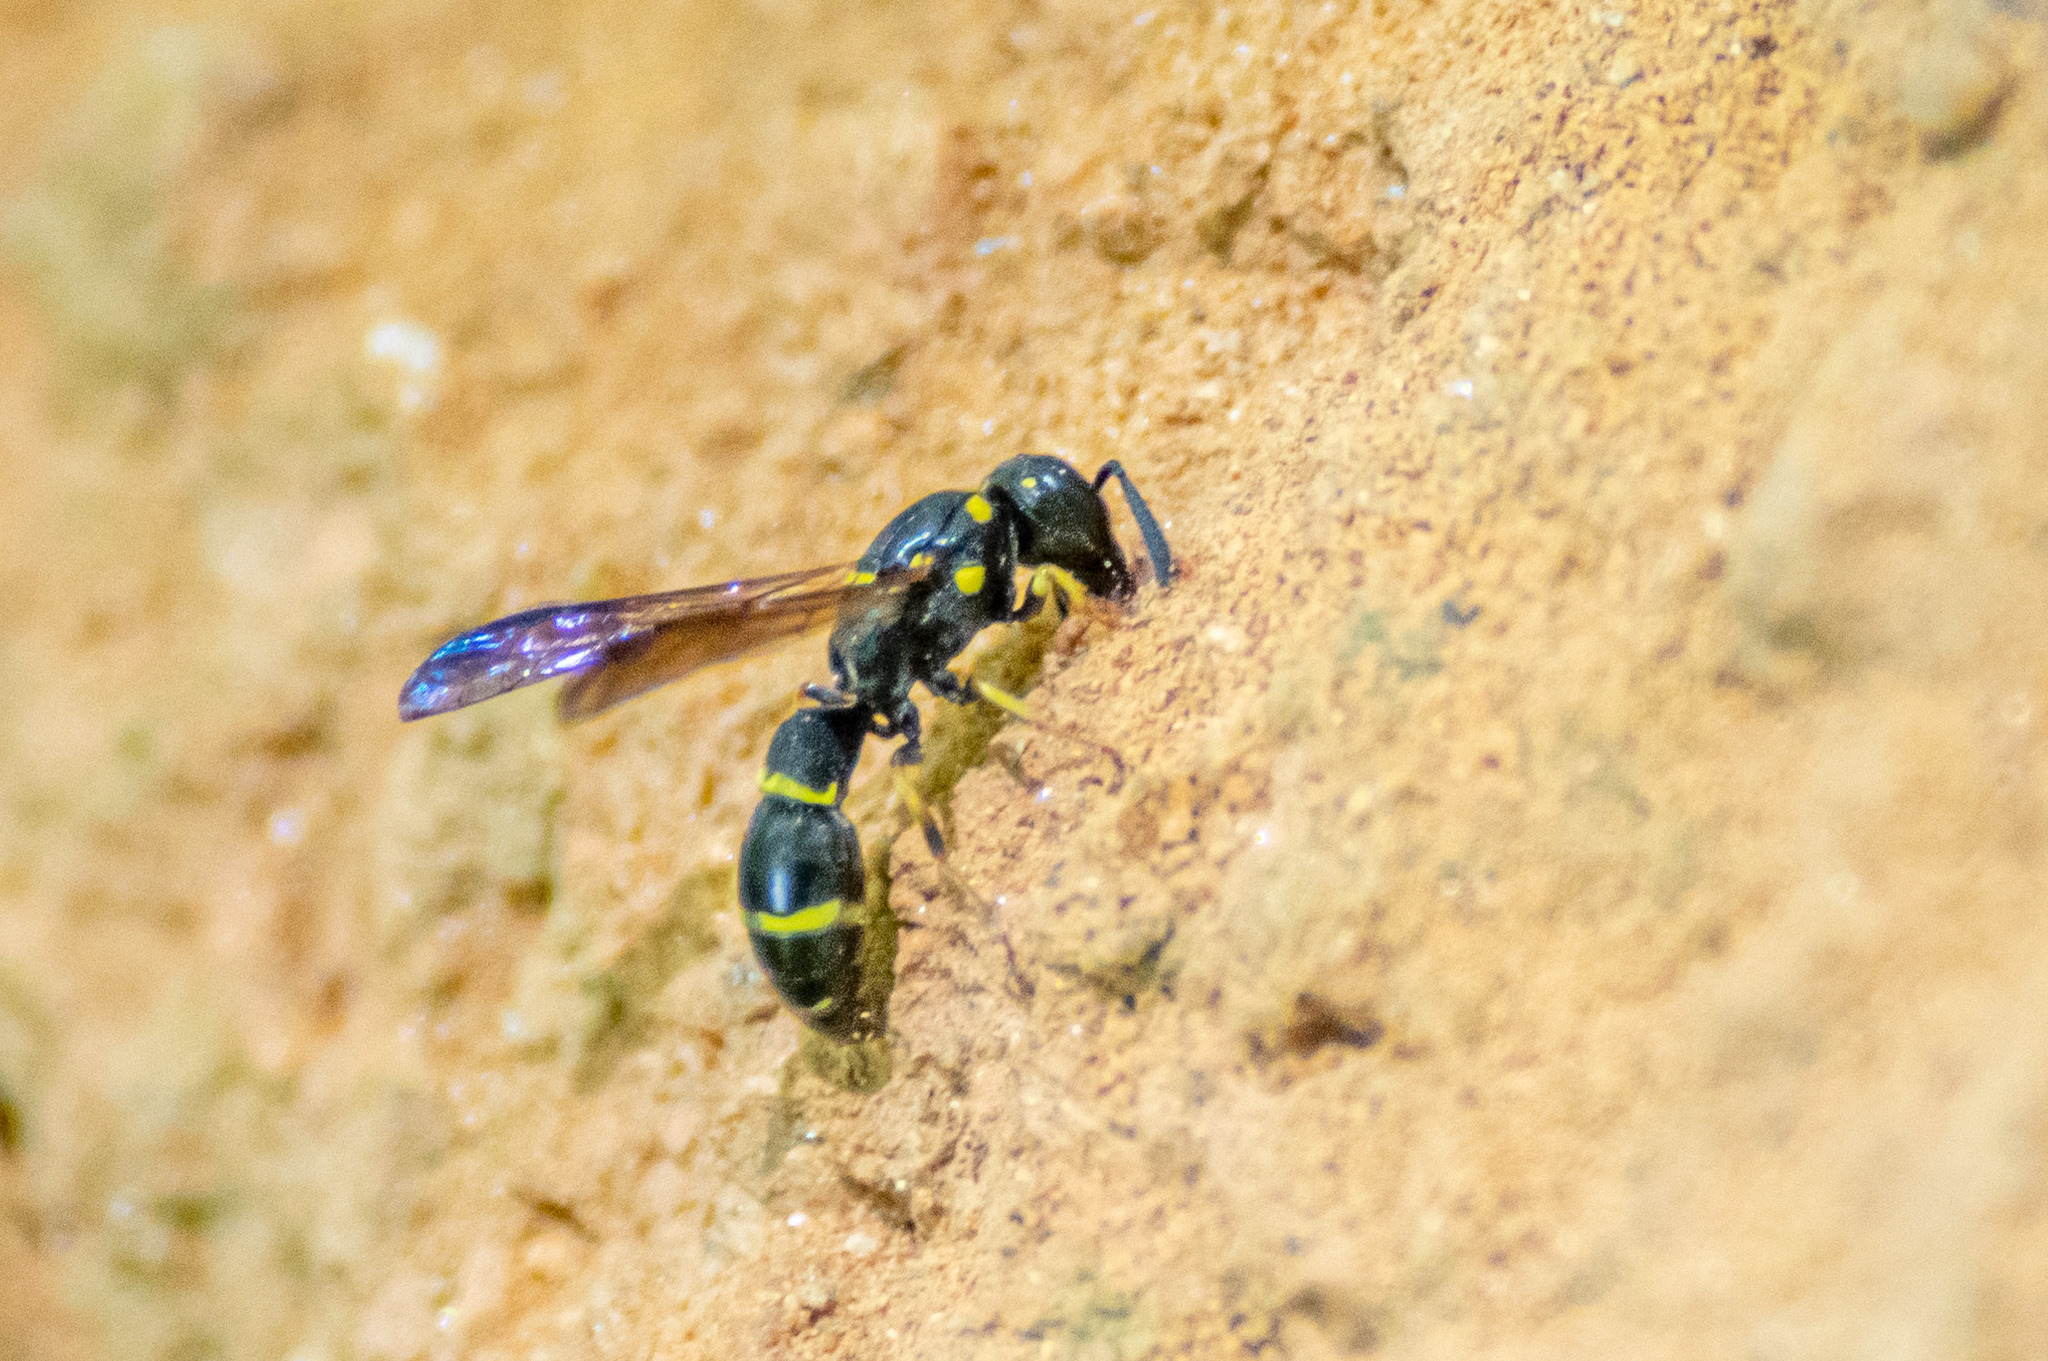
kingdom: Animalia
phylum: Arthropoda
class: Insecta
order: Hymenoptera
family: Eumenidae
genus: Symmorphus
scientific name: Symmorphus
